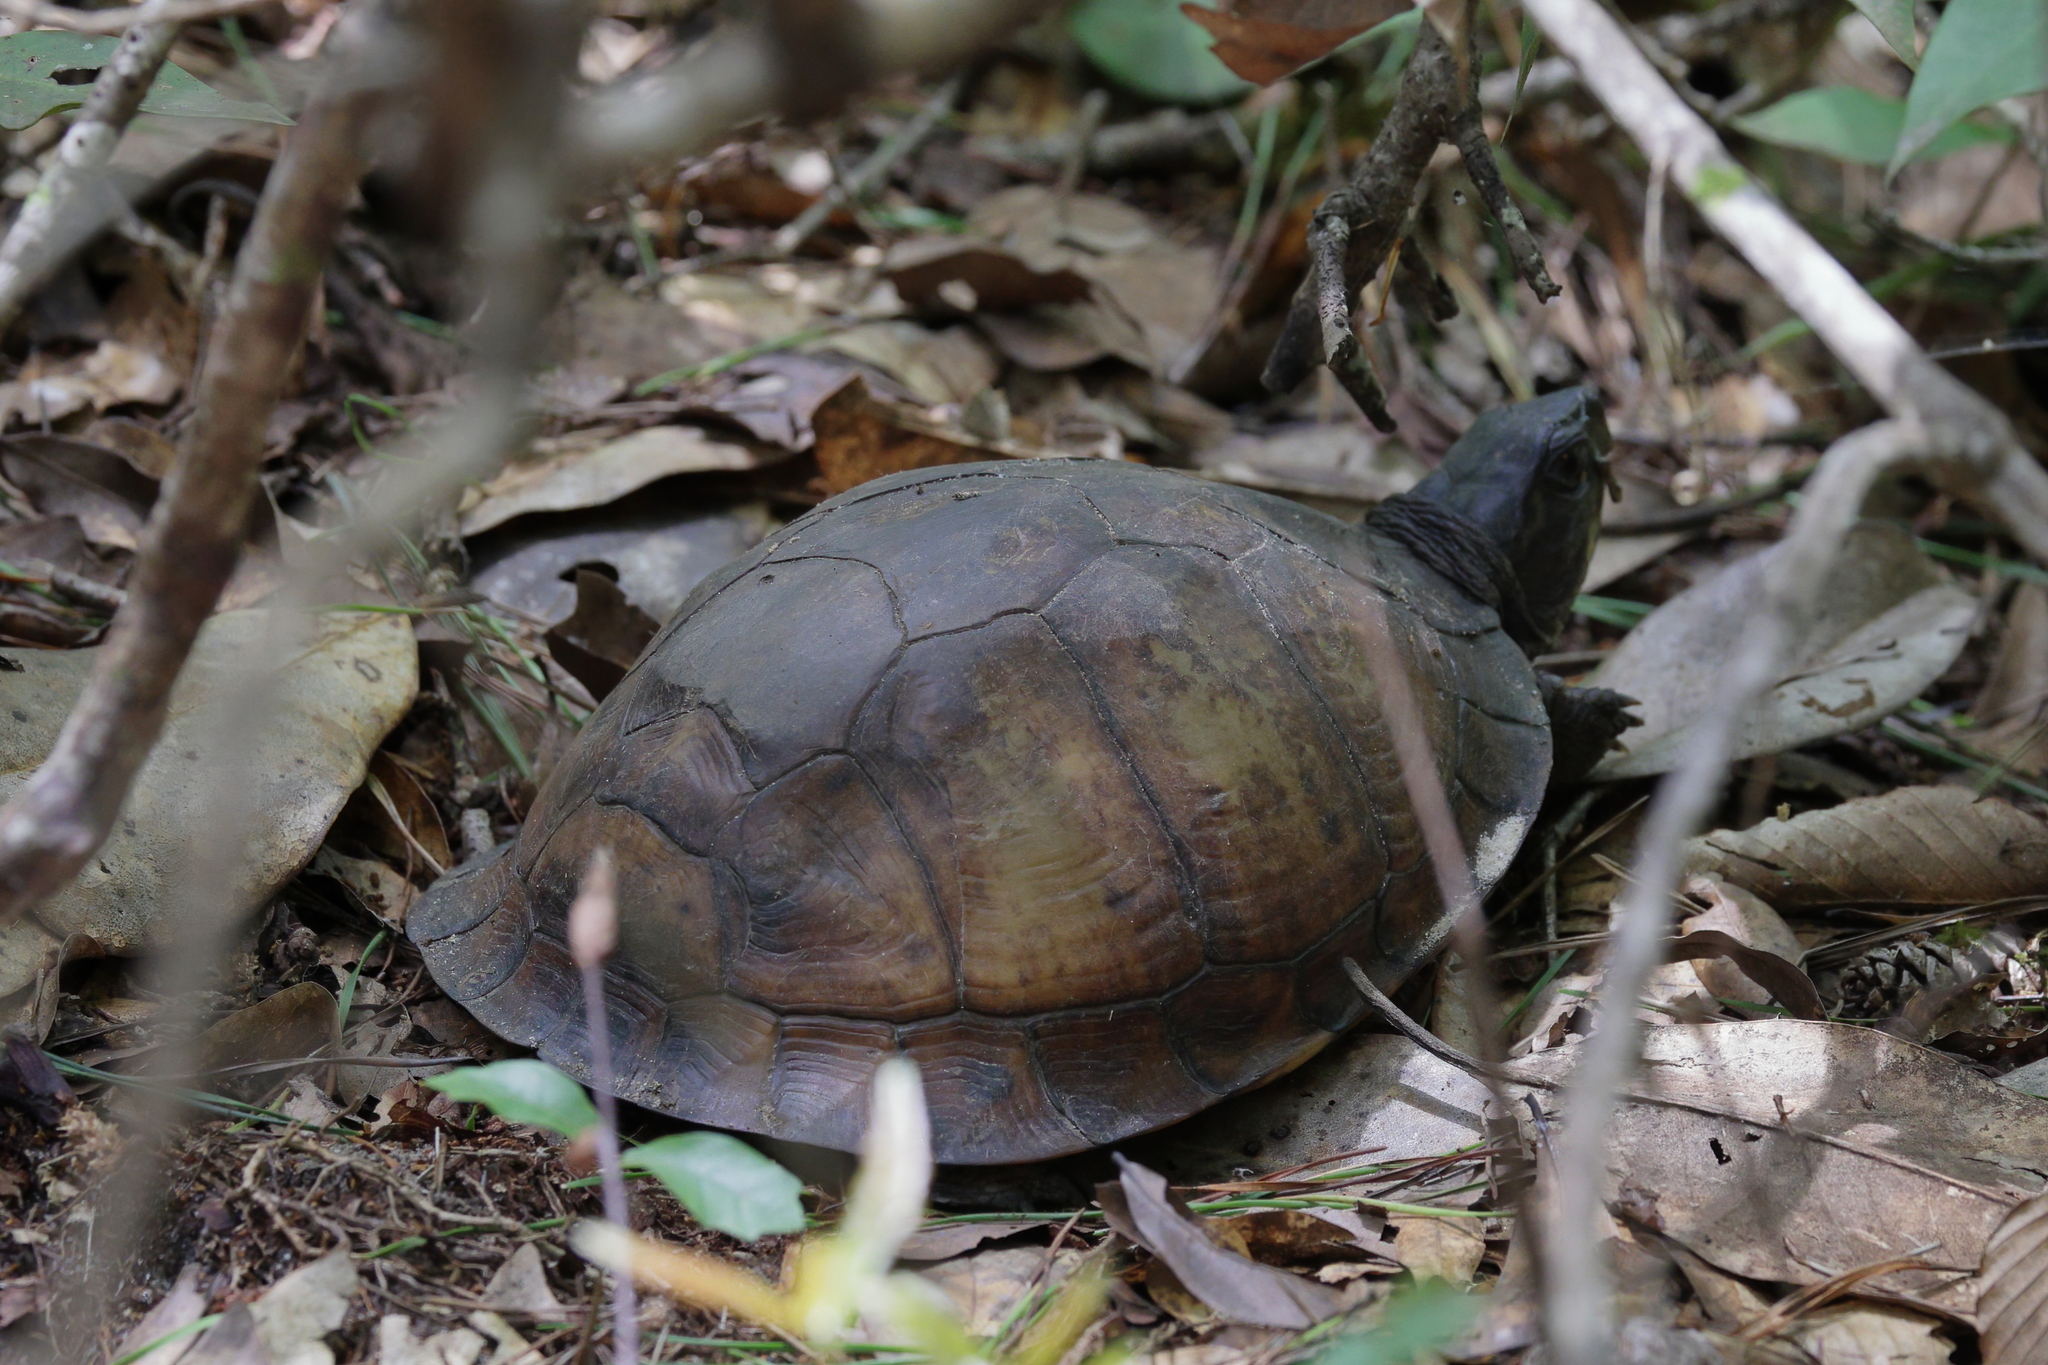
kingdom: Animalia
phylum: Chordata
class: Testudines
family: Emydidae
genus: Terrapene
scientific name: Terrapene carolina
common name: Common box turtle
